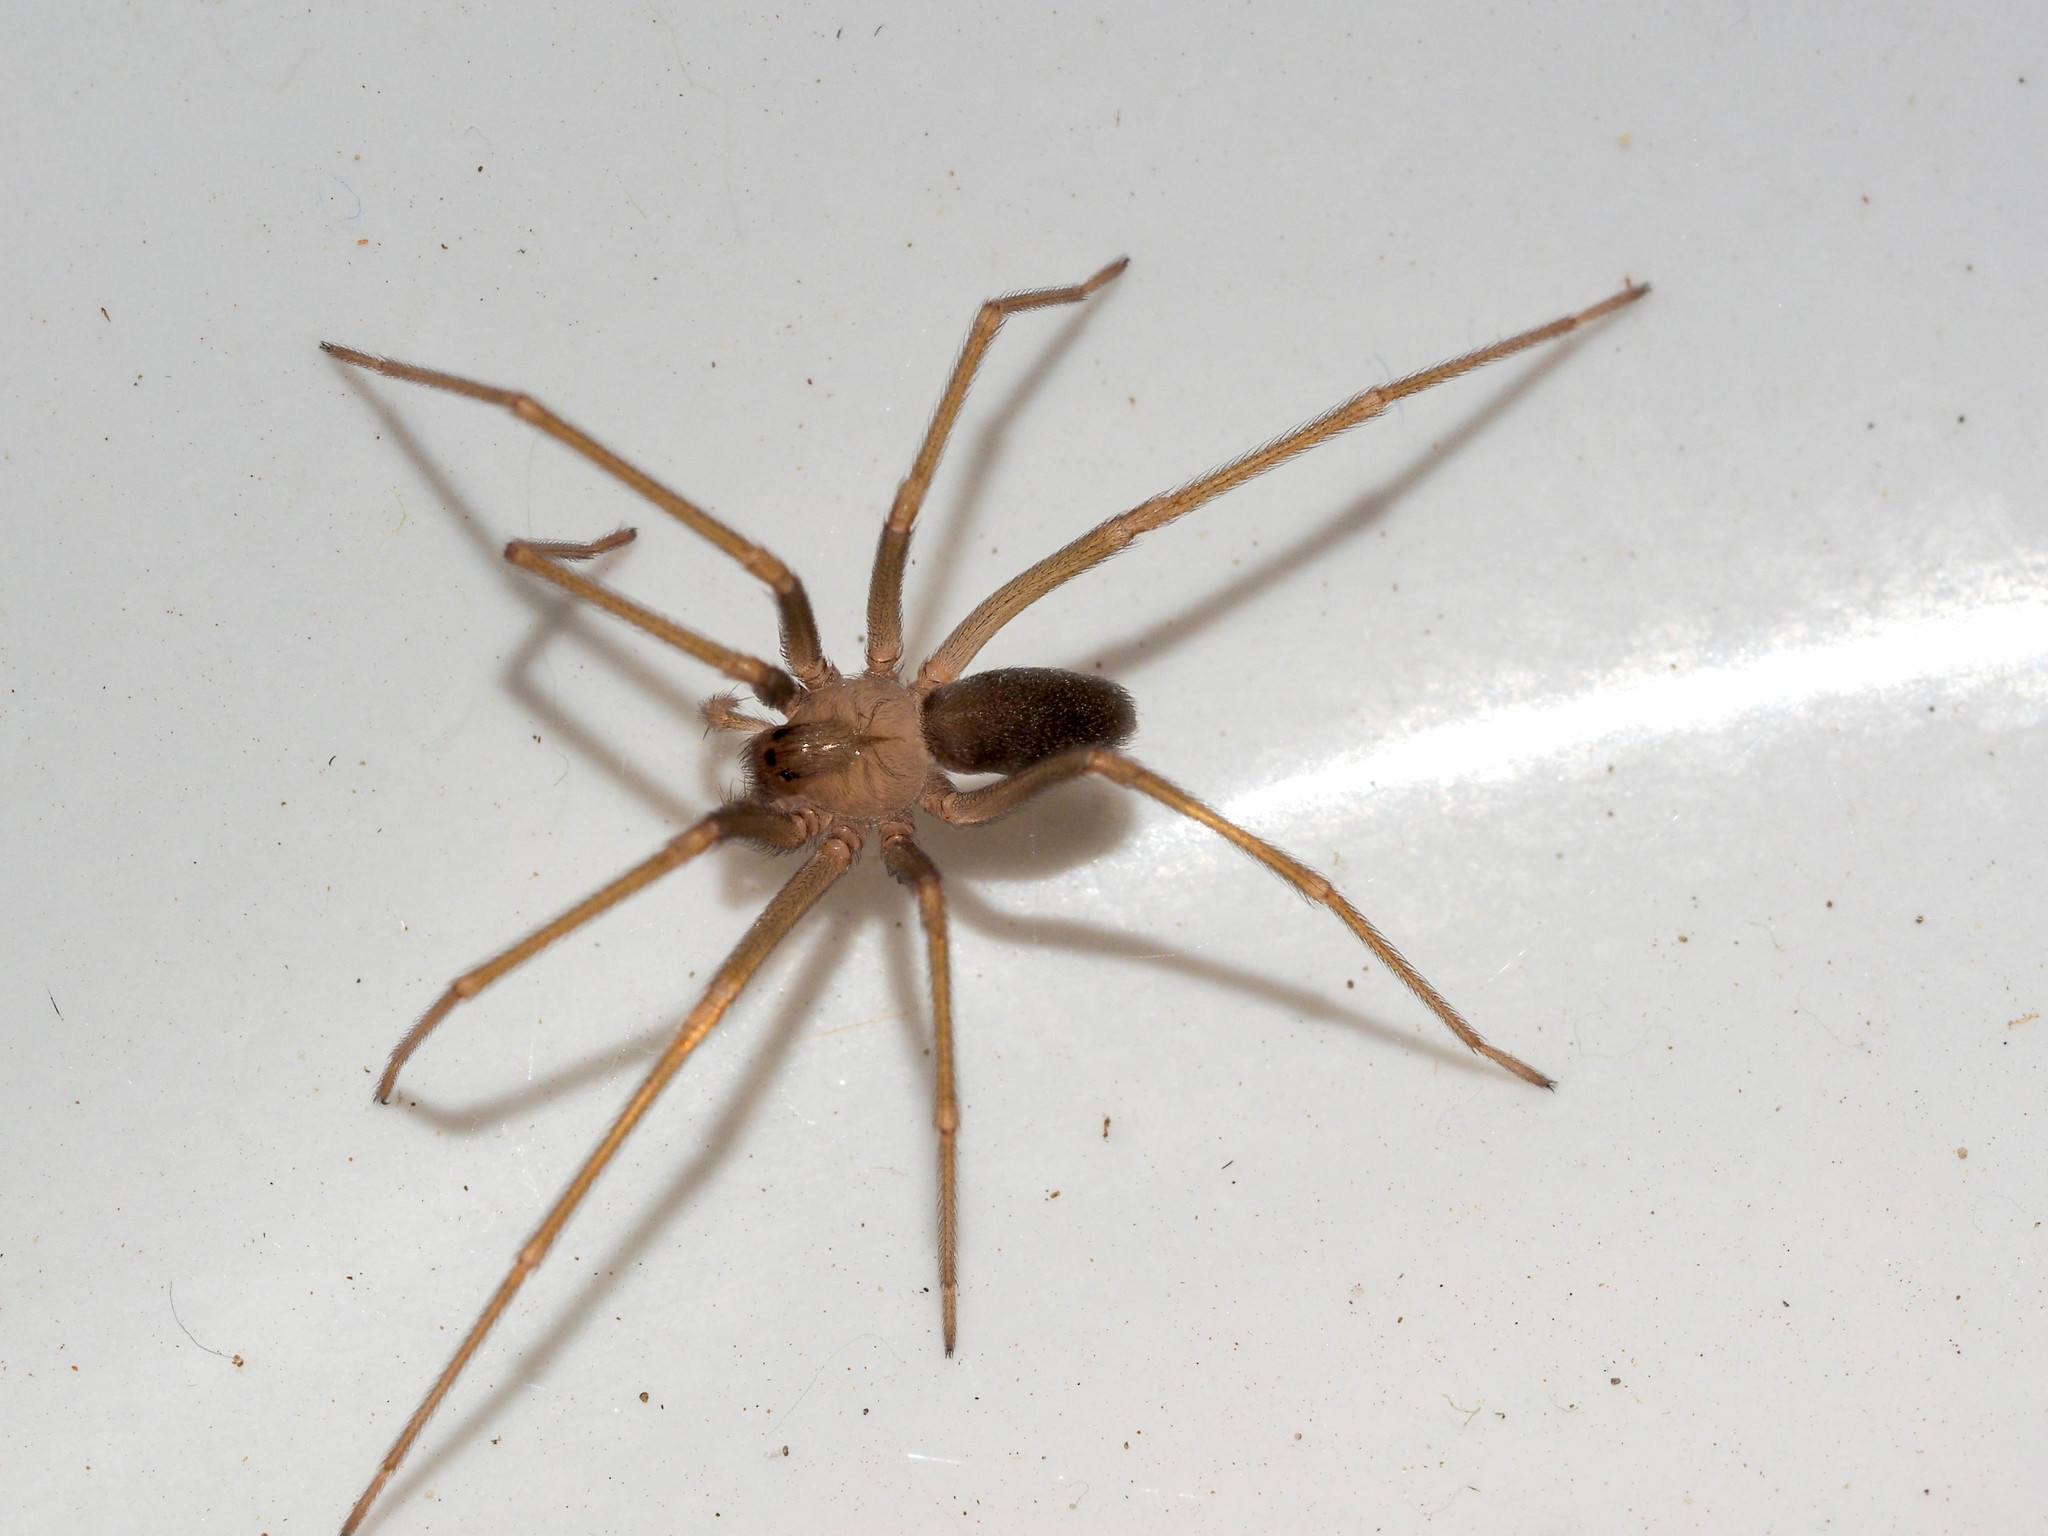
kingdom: Animalia
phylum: Arthropoda
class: Arachnida
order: Araneae
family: Sicariidae
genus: Loxosceles
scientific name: Loxosceles rufescens
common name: Mediterranean recluse spider
